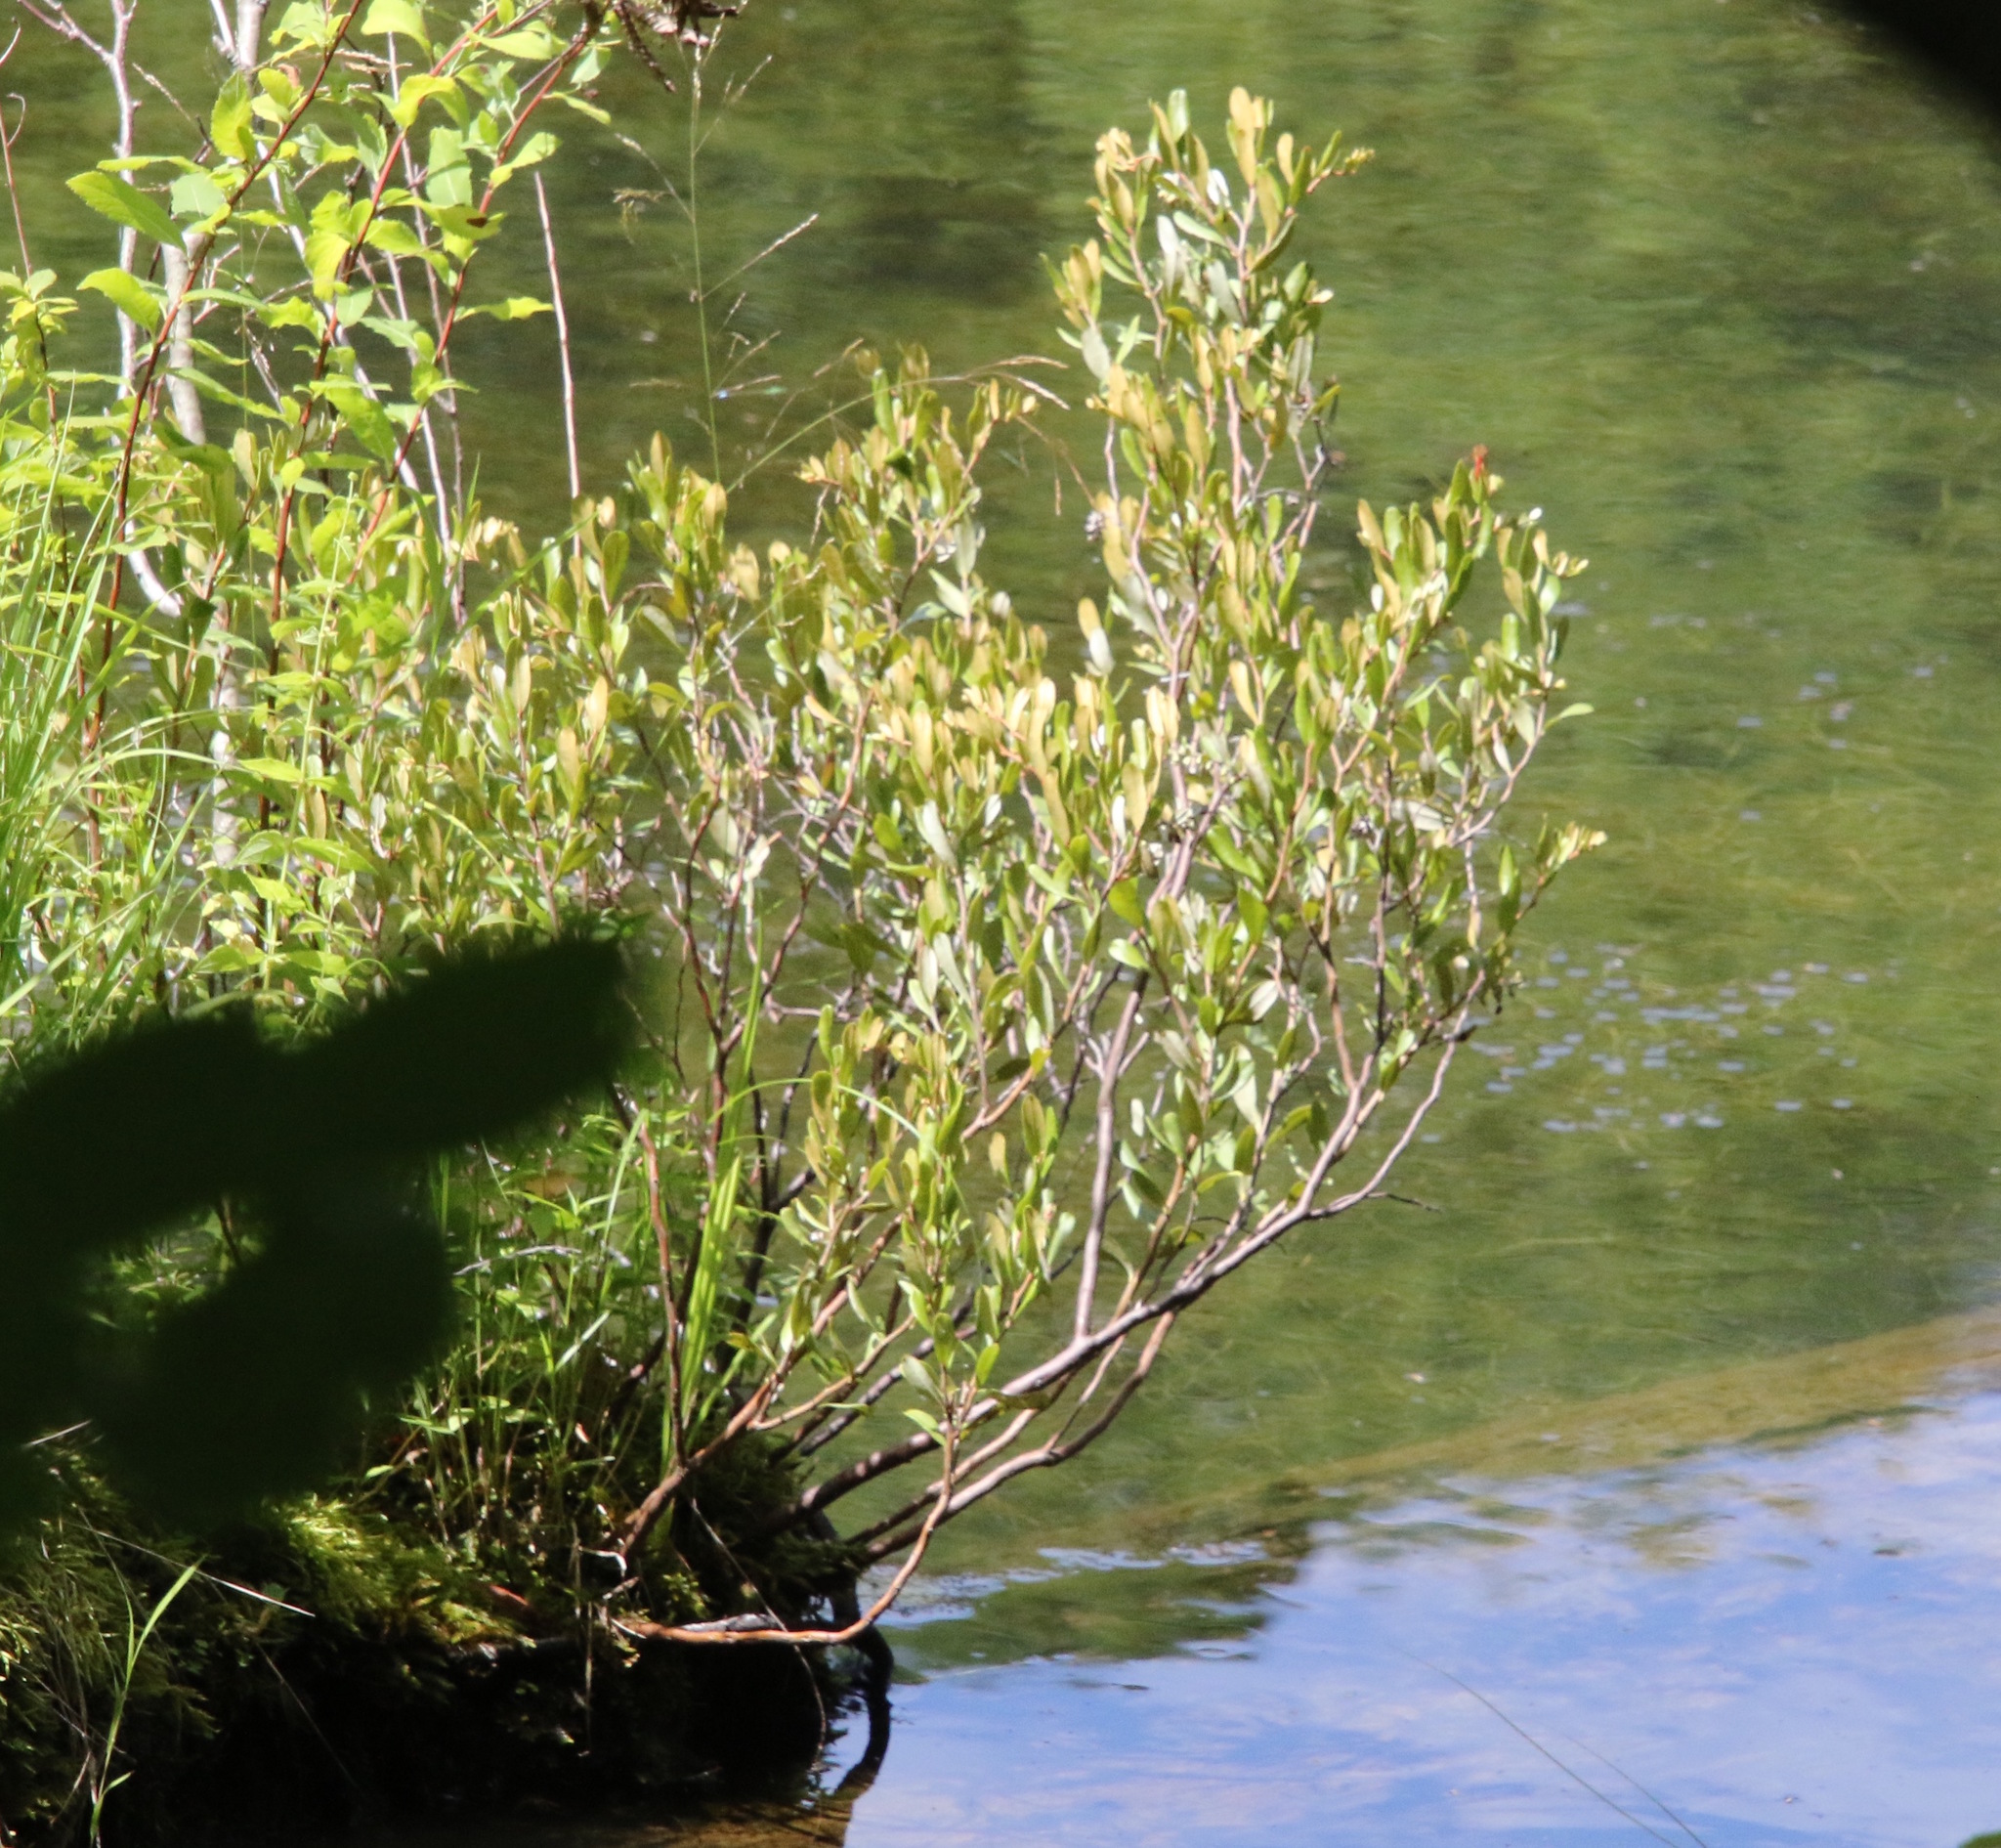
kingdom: Plantae
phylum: Tracheophyta
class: Magnoliopsida
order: Ericales
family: Ericaceae
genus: Chamaedaphne
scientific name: Chamaedaphne calyculata
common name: Leatherleaf
